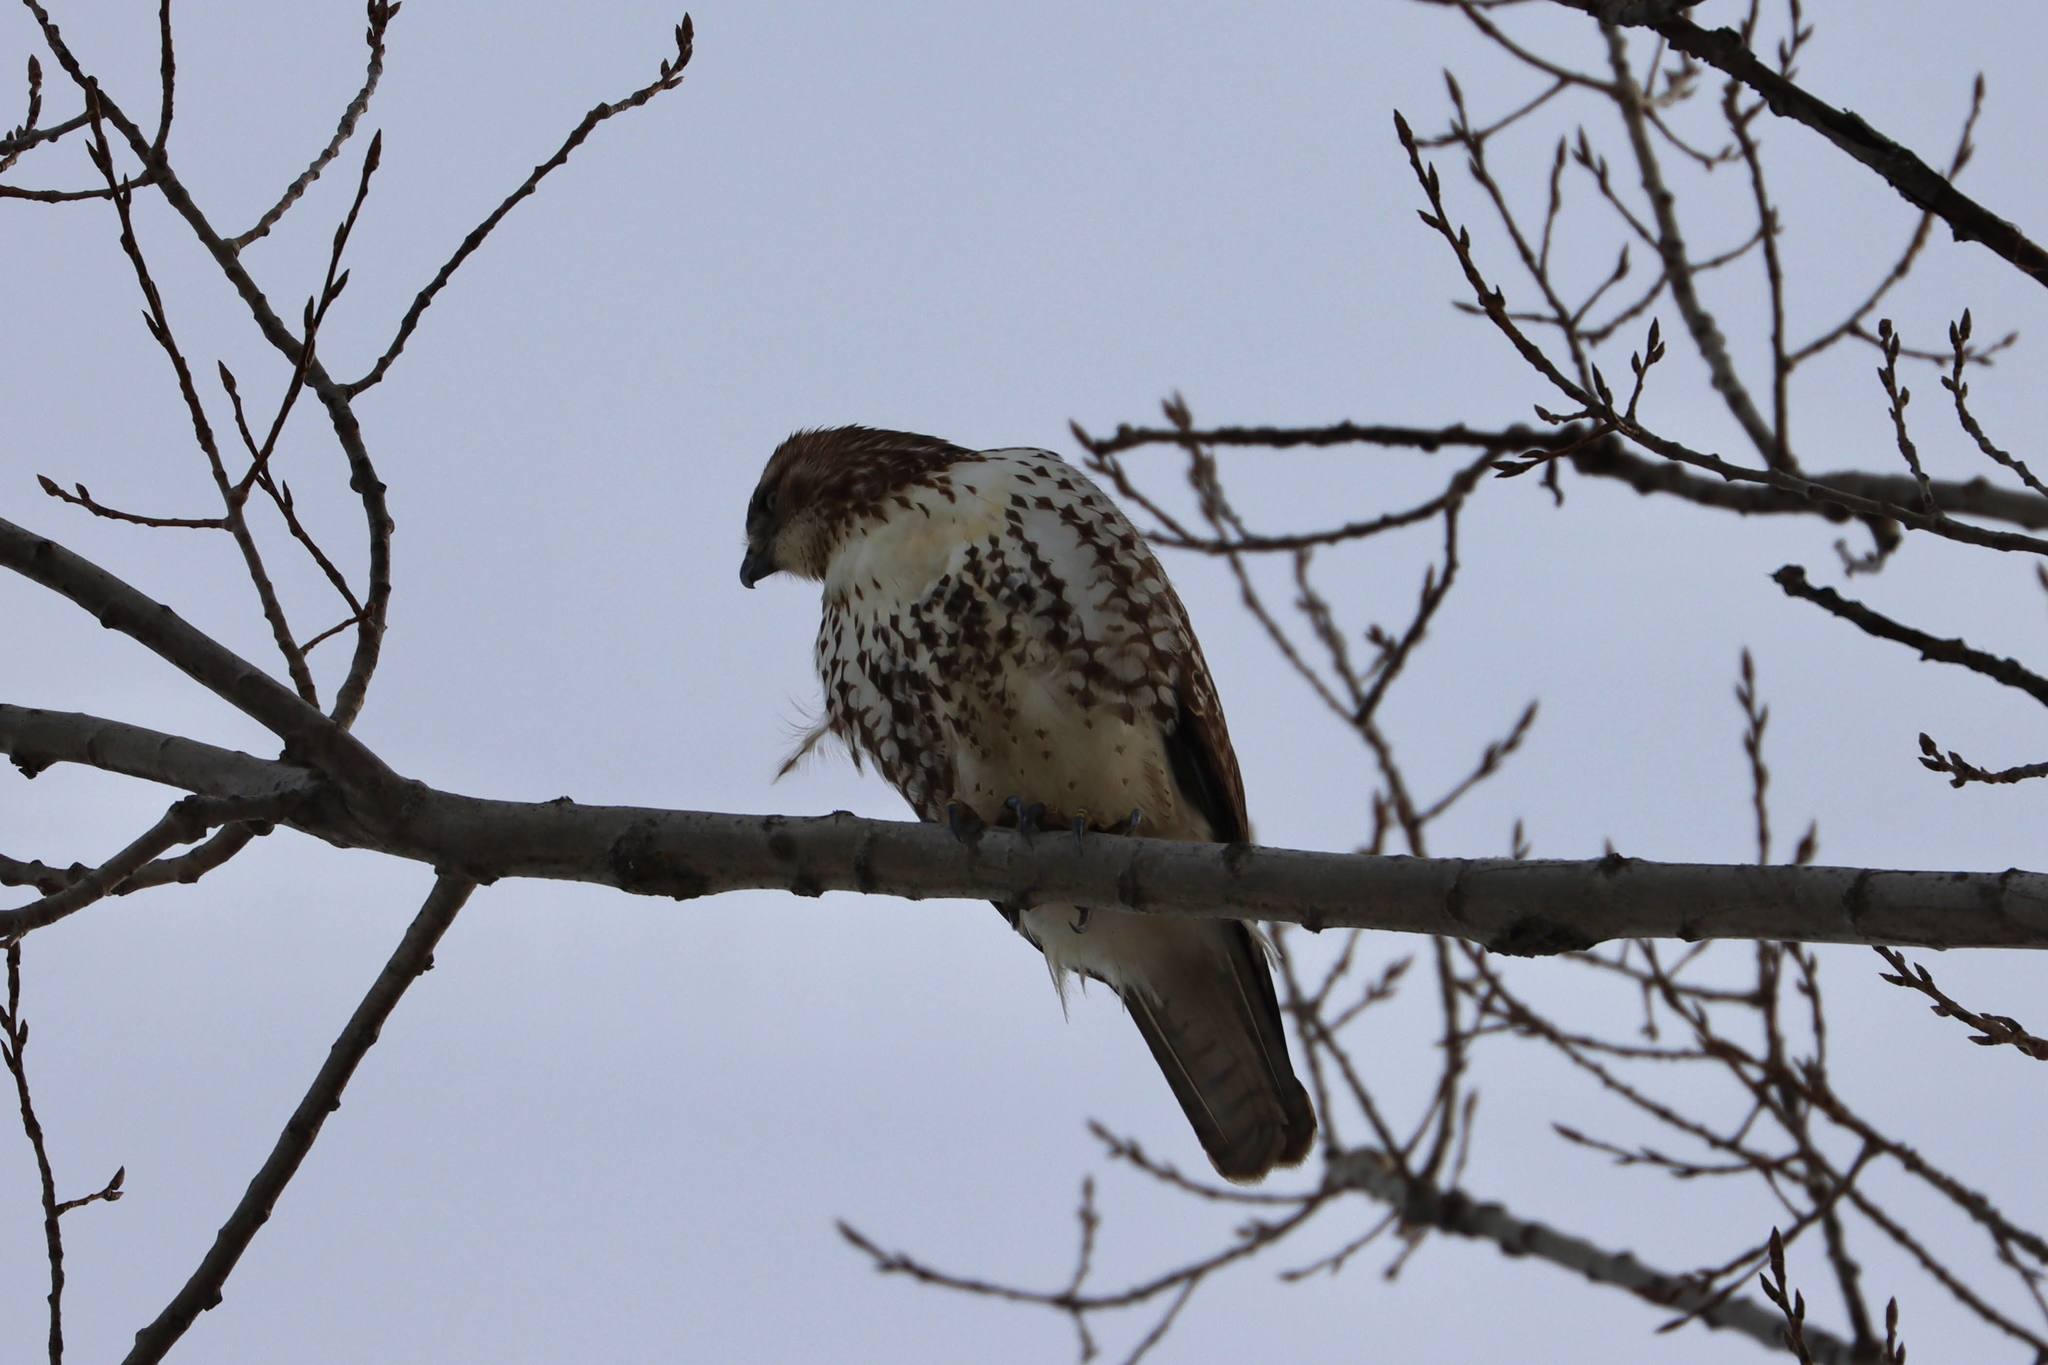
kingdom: Animalia
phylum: Chordata
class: Aves
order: Accipitriformes
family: Accipitridae
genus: Buteo
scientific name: Buteo jamaicensis
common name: Red-tailed hawk
